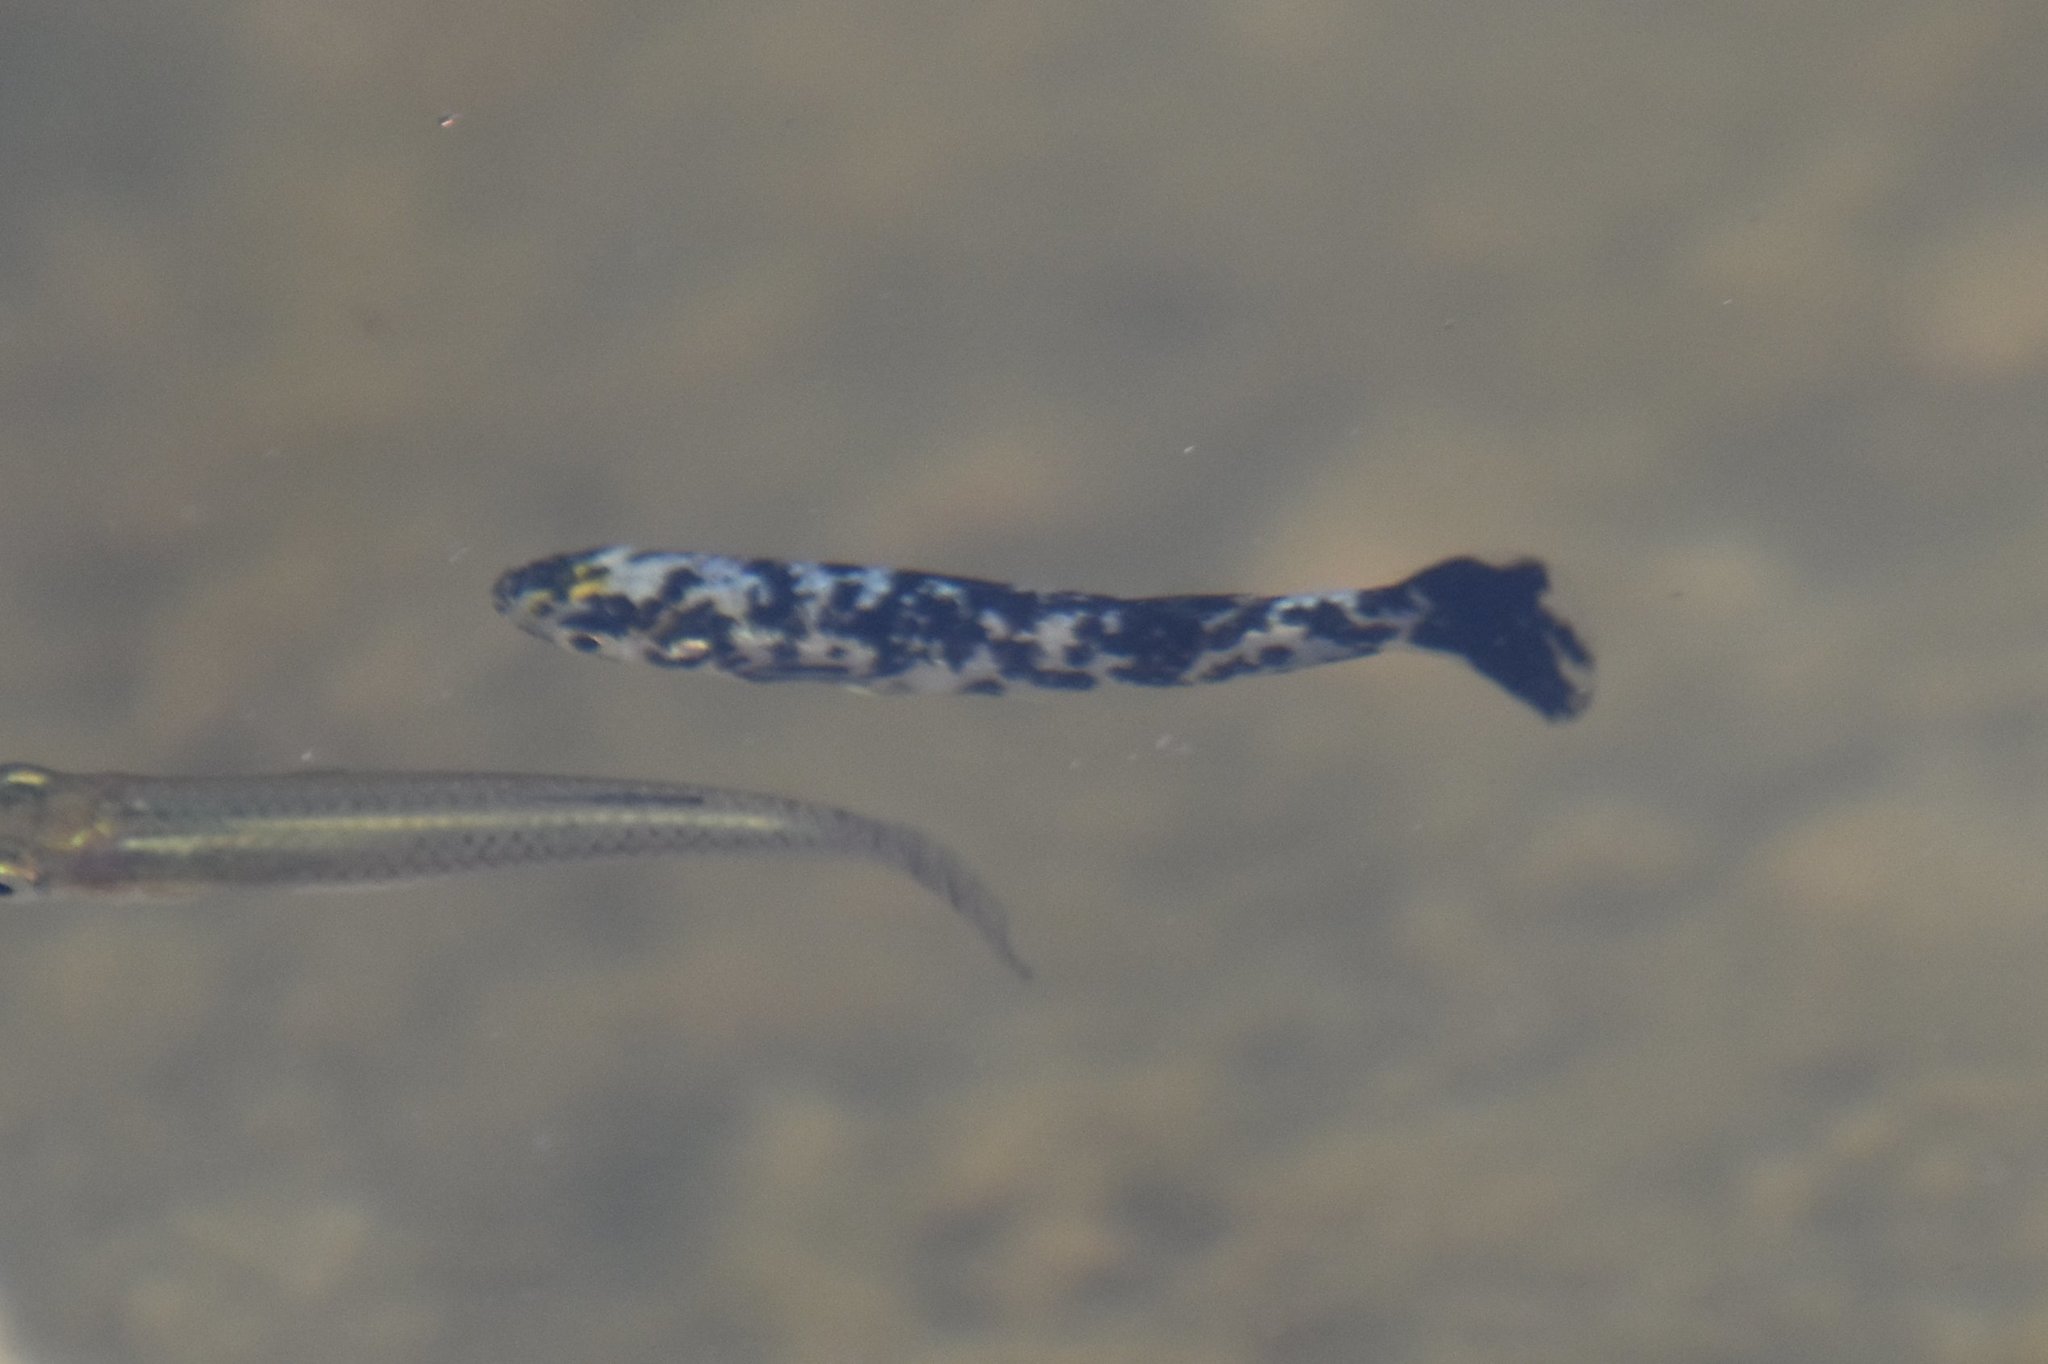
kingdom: Animalia
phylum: Chordata
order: Cyprinodontiformes
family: Poeciliidae
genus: Gambusia
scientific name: Gambusia holbrooki
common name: Eastern mosquitofish
